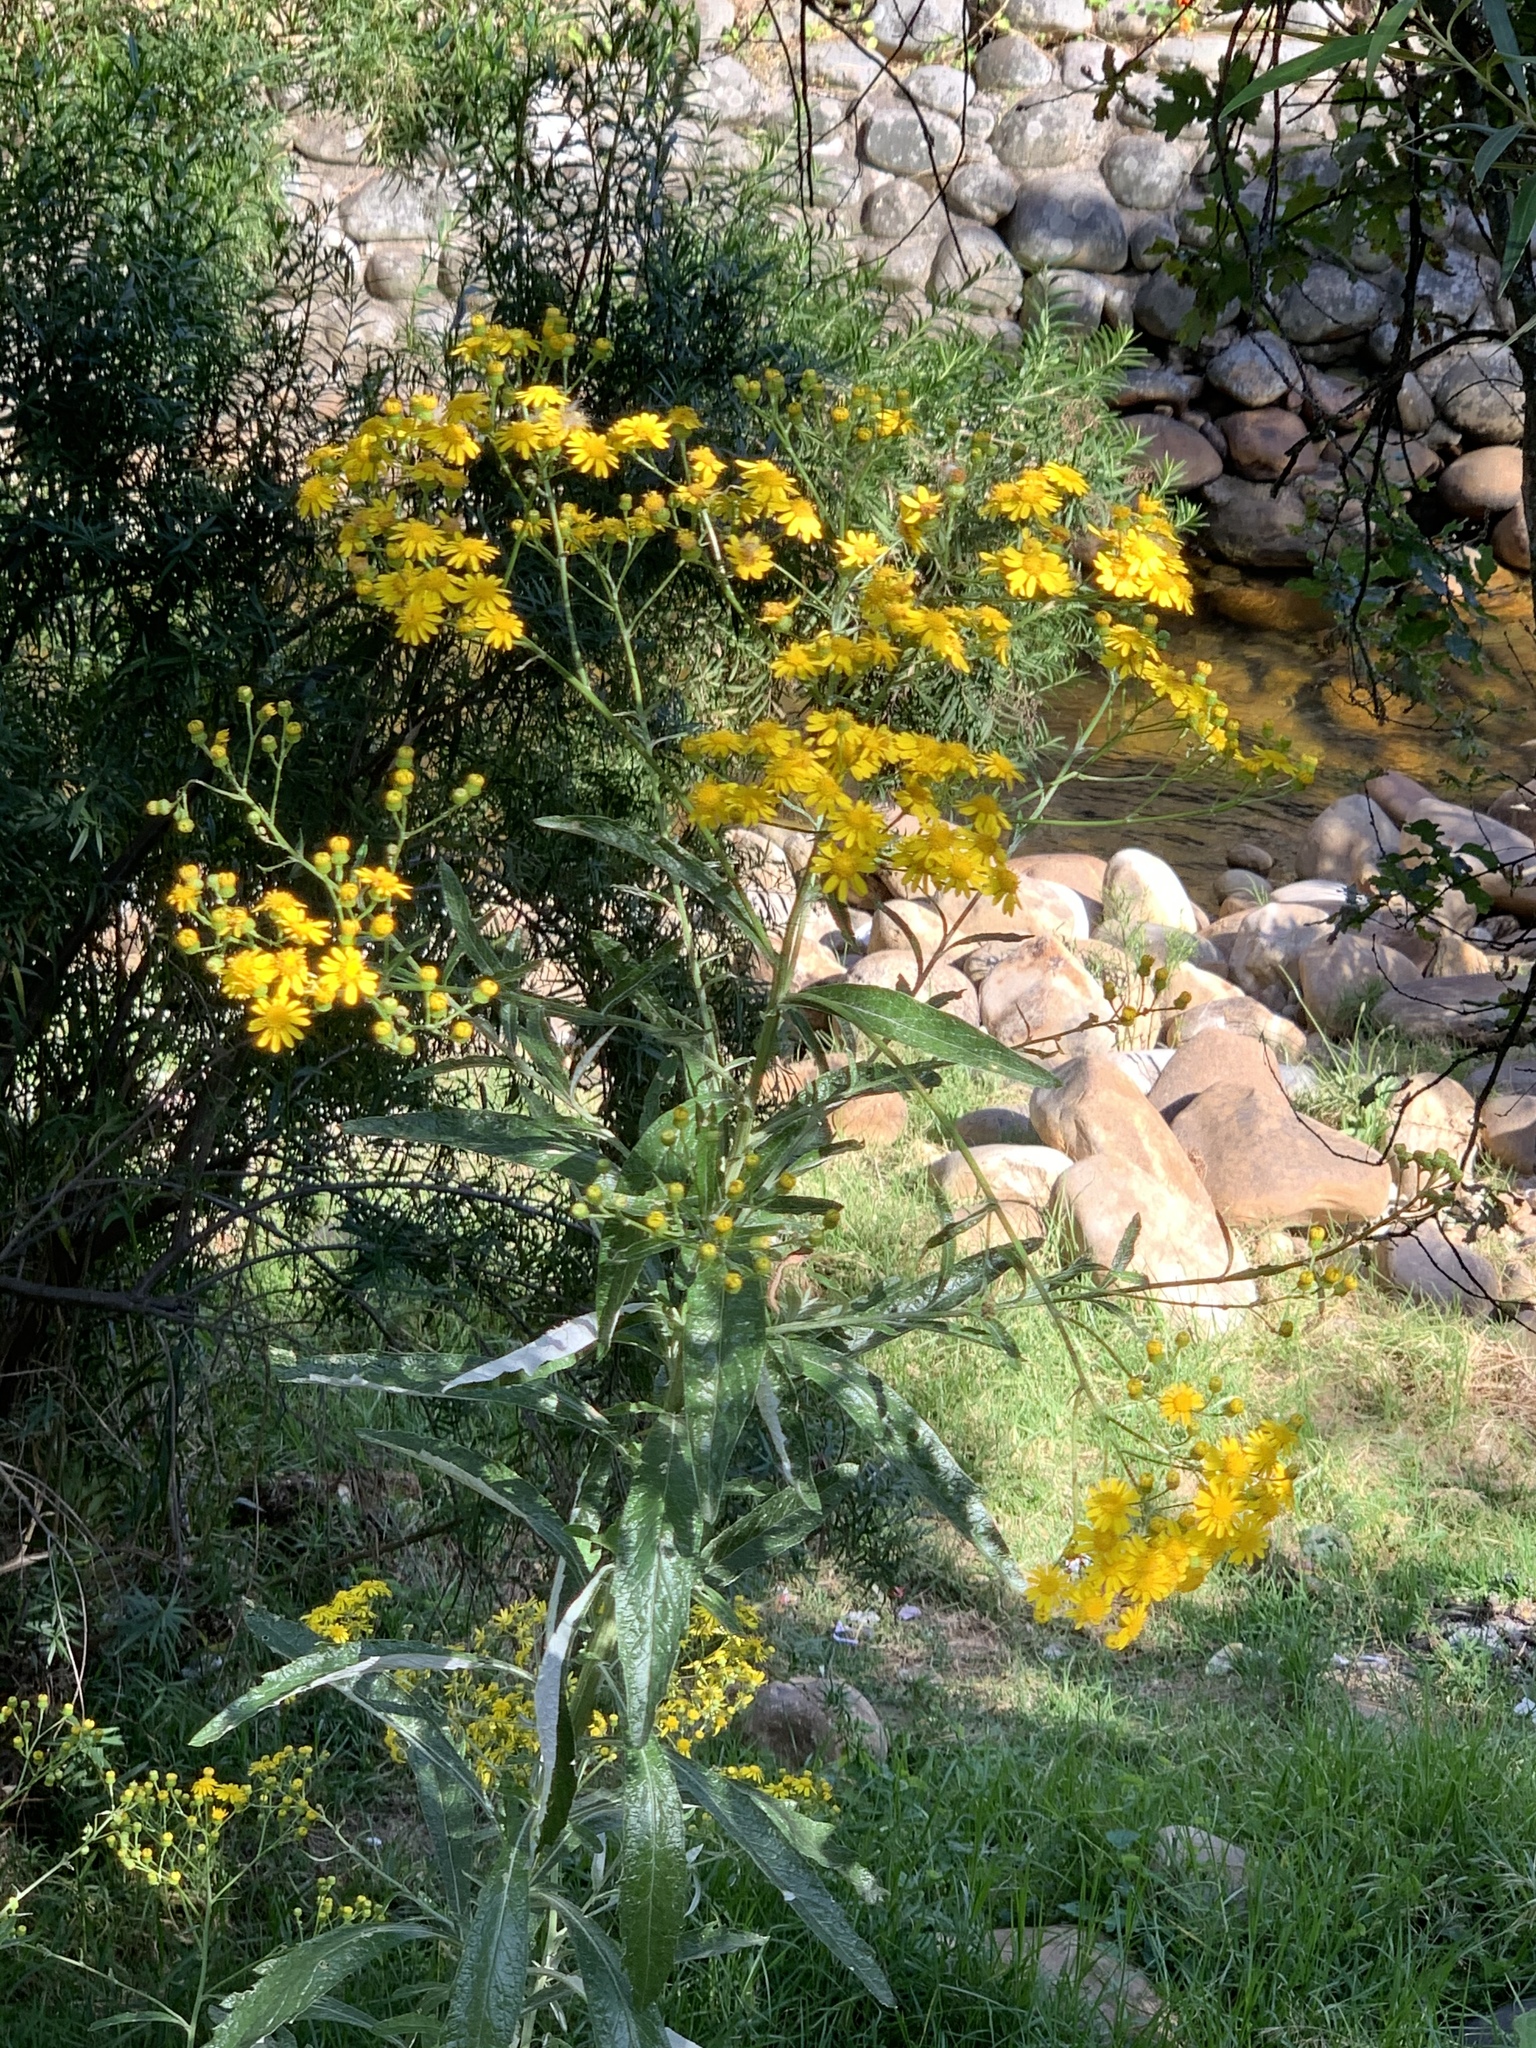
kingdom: Plantae
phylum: Tracheophyta
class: Magnoliopsida
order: Asterales
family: Asteraceae
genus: Senecio
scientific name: Senecio pterophorus
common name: Shoddy ragwort
